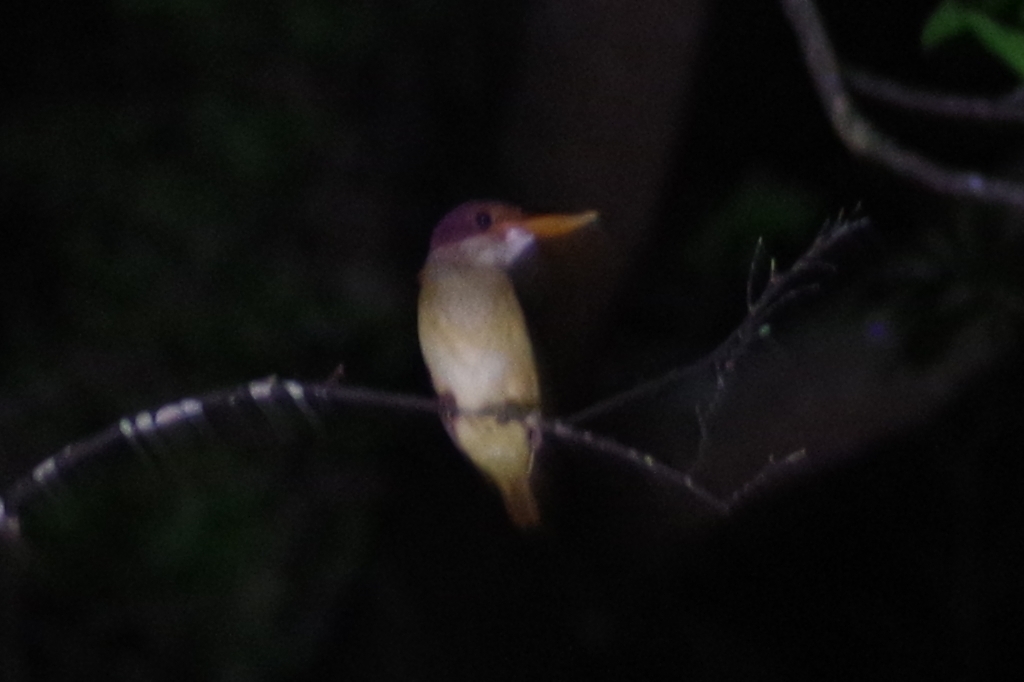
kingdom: Animalia
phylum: Chordata
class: Aves
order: Coraciiformes
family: Alcedinidae
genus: Halcyon
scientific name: Halcyon coromanda
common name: Ruddy kingfisher
